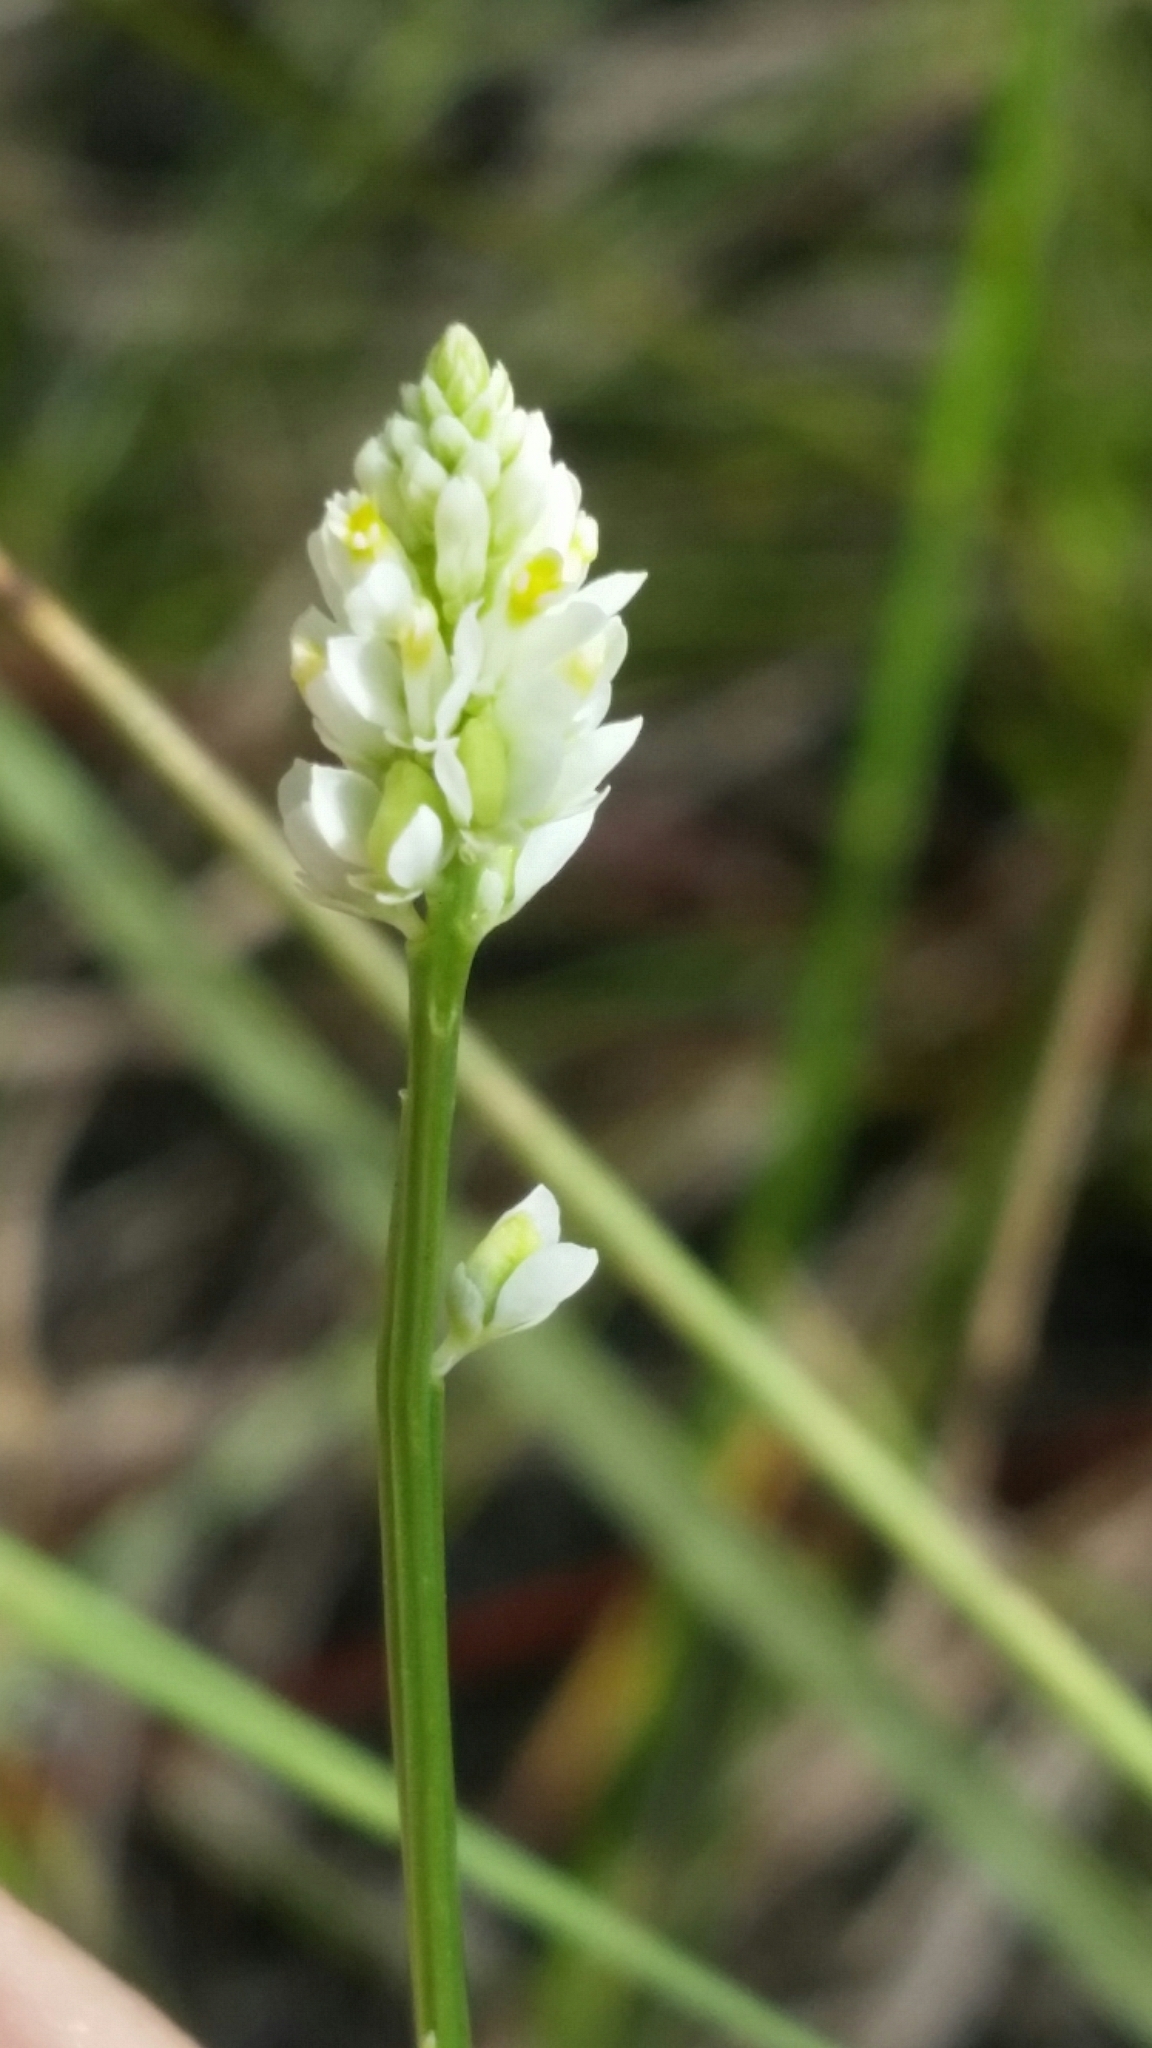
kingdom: Plantae
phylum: Tracheophyta
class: Magnoliopsida
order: Fabales
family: Polygalaceae
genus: Polygala
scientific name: Polygala setacea
